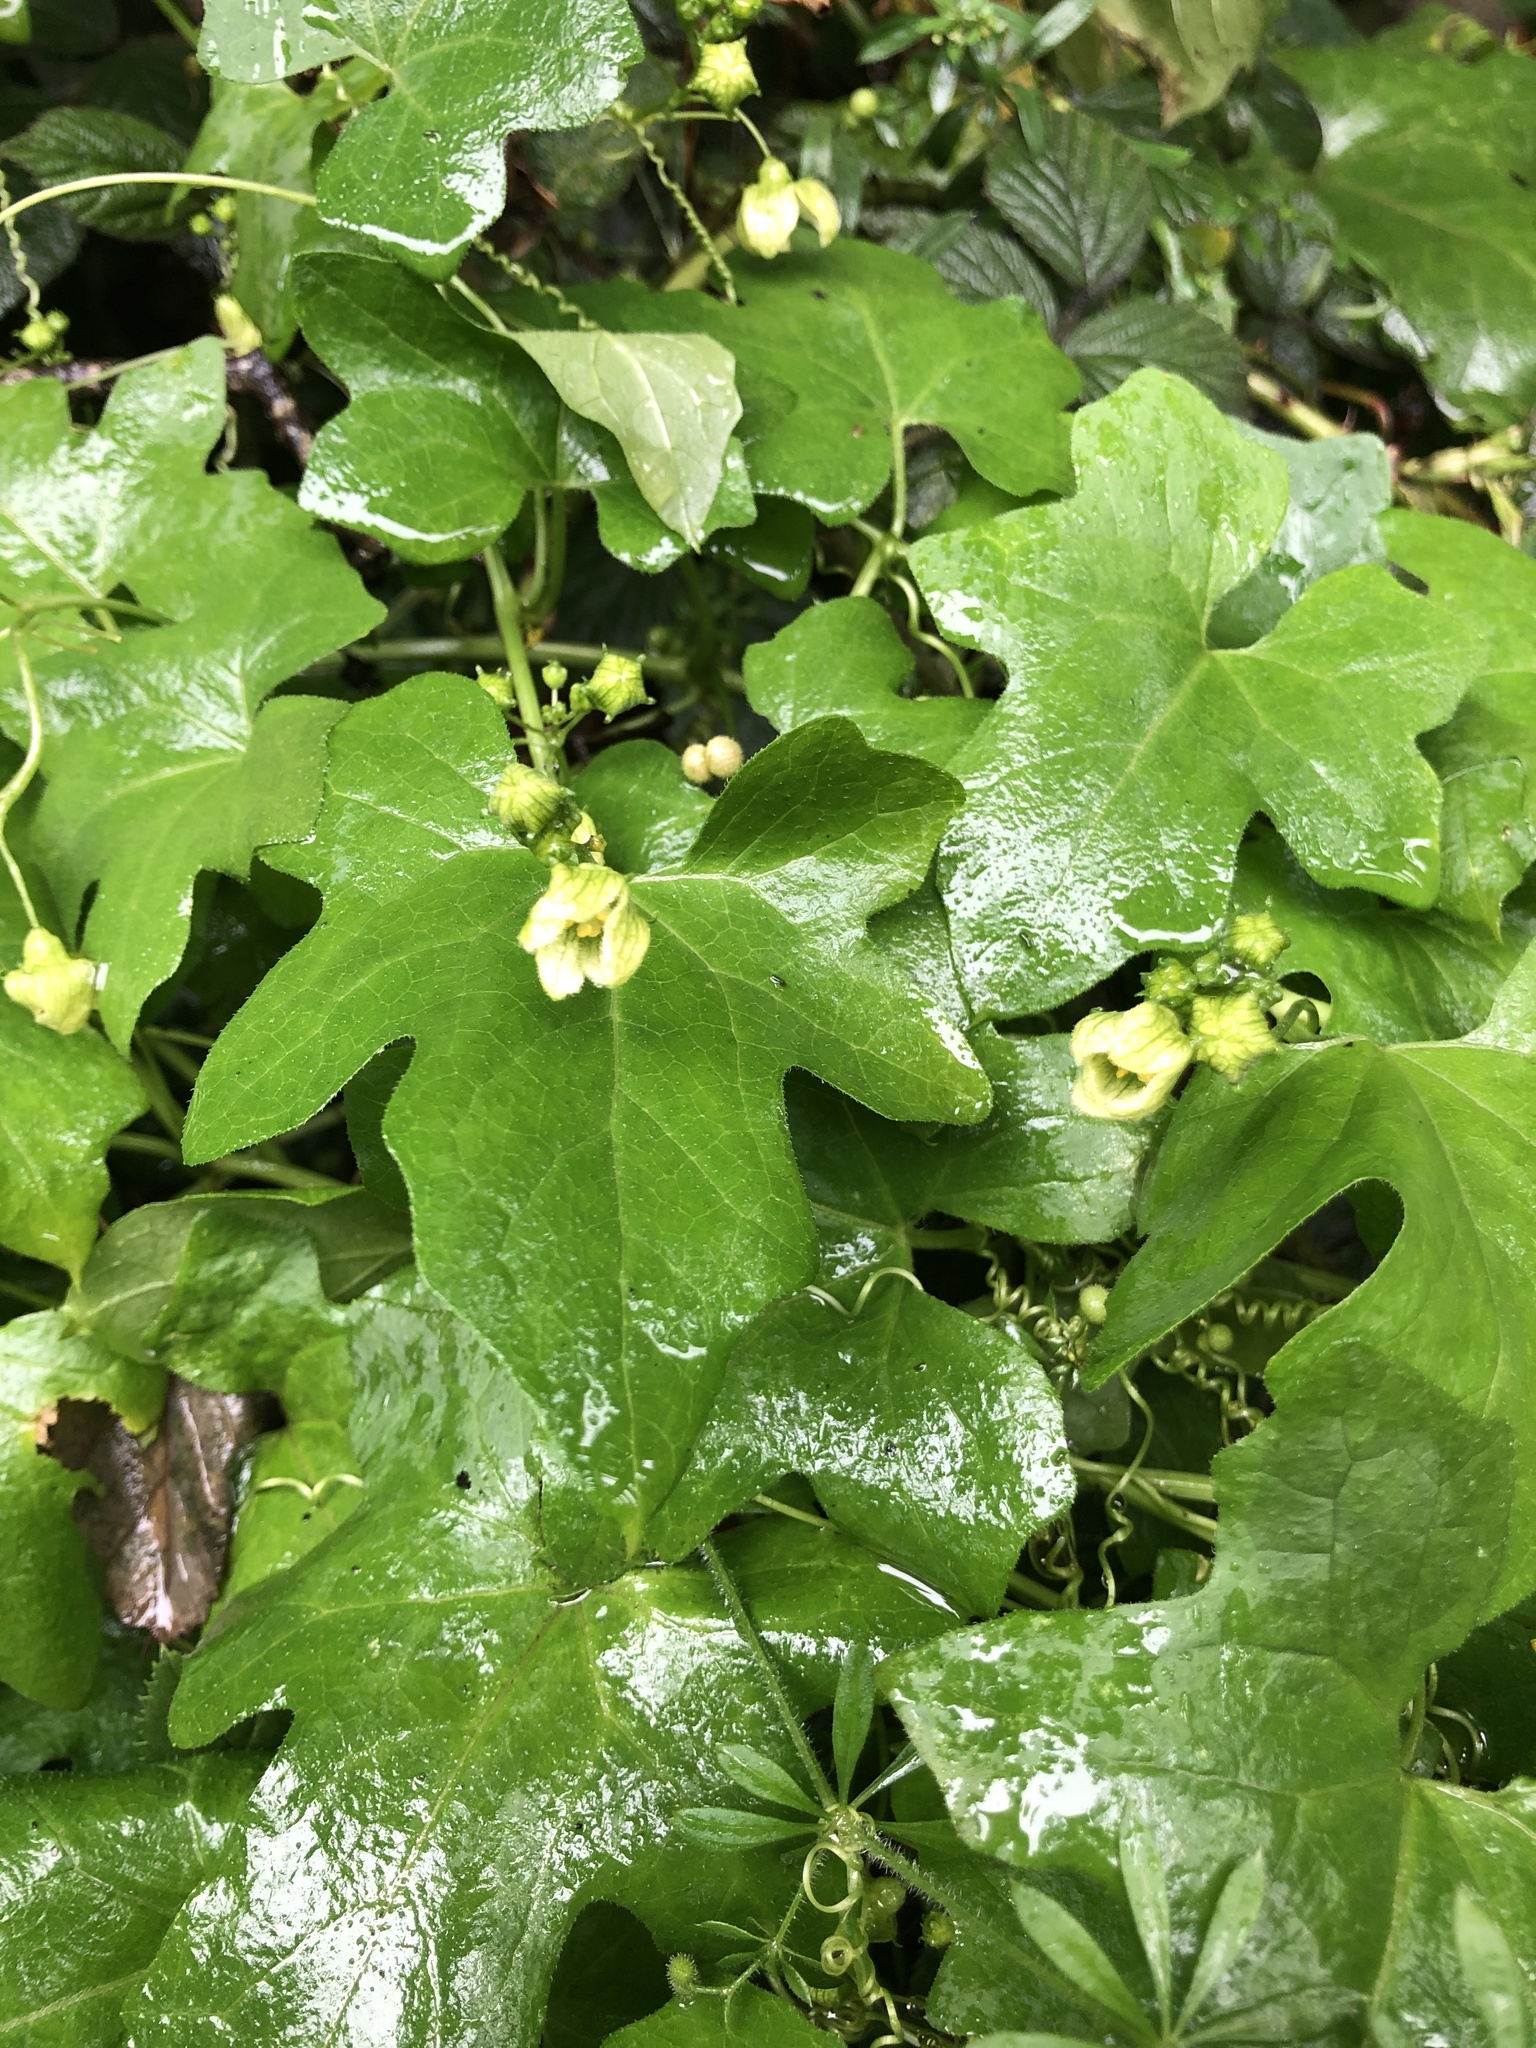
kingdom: Plantae
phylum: Tracheophyta
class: Magnoliopsida
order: Cucurbitales
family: Cucurbitaceae
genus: Bryonia
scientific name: Bryonia cretica
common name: Cretan bryony
